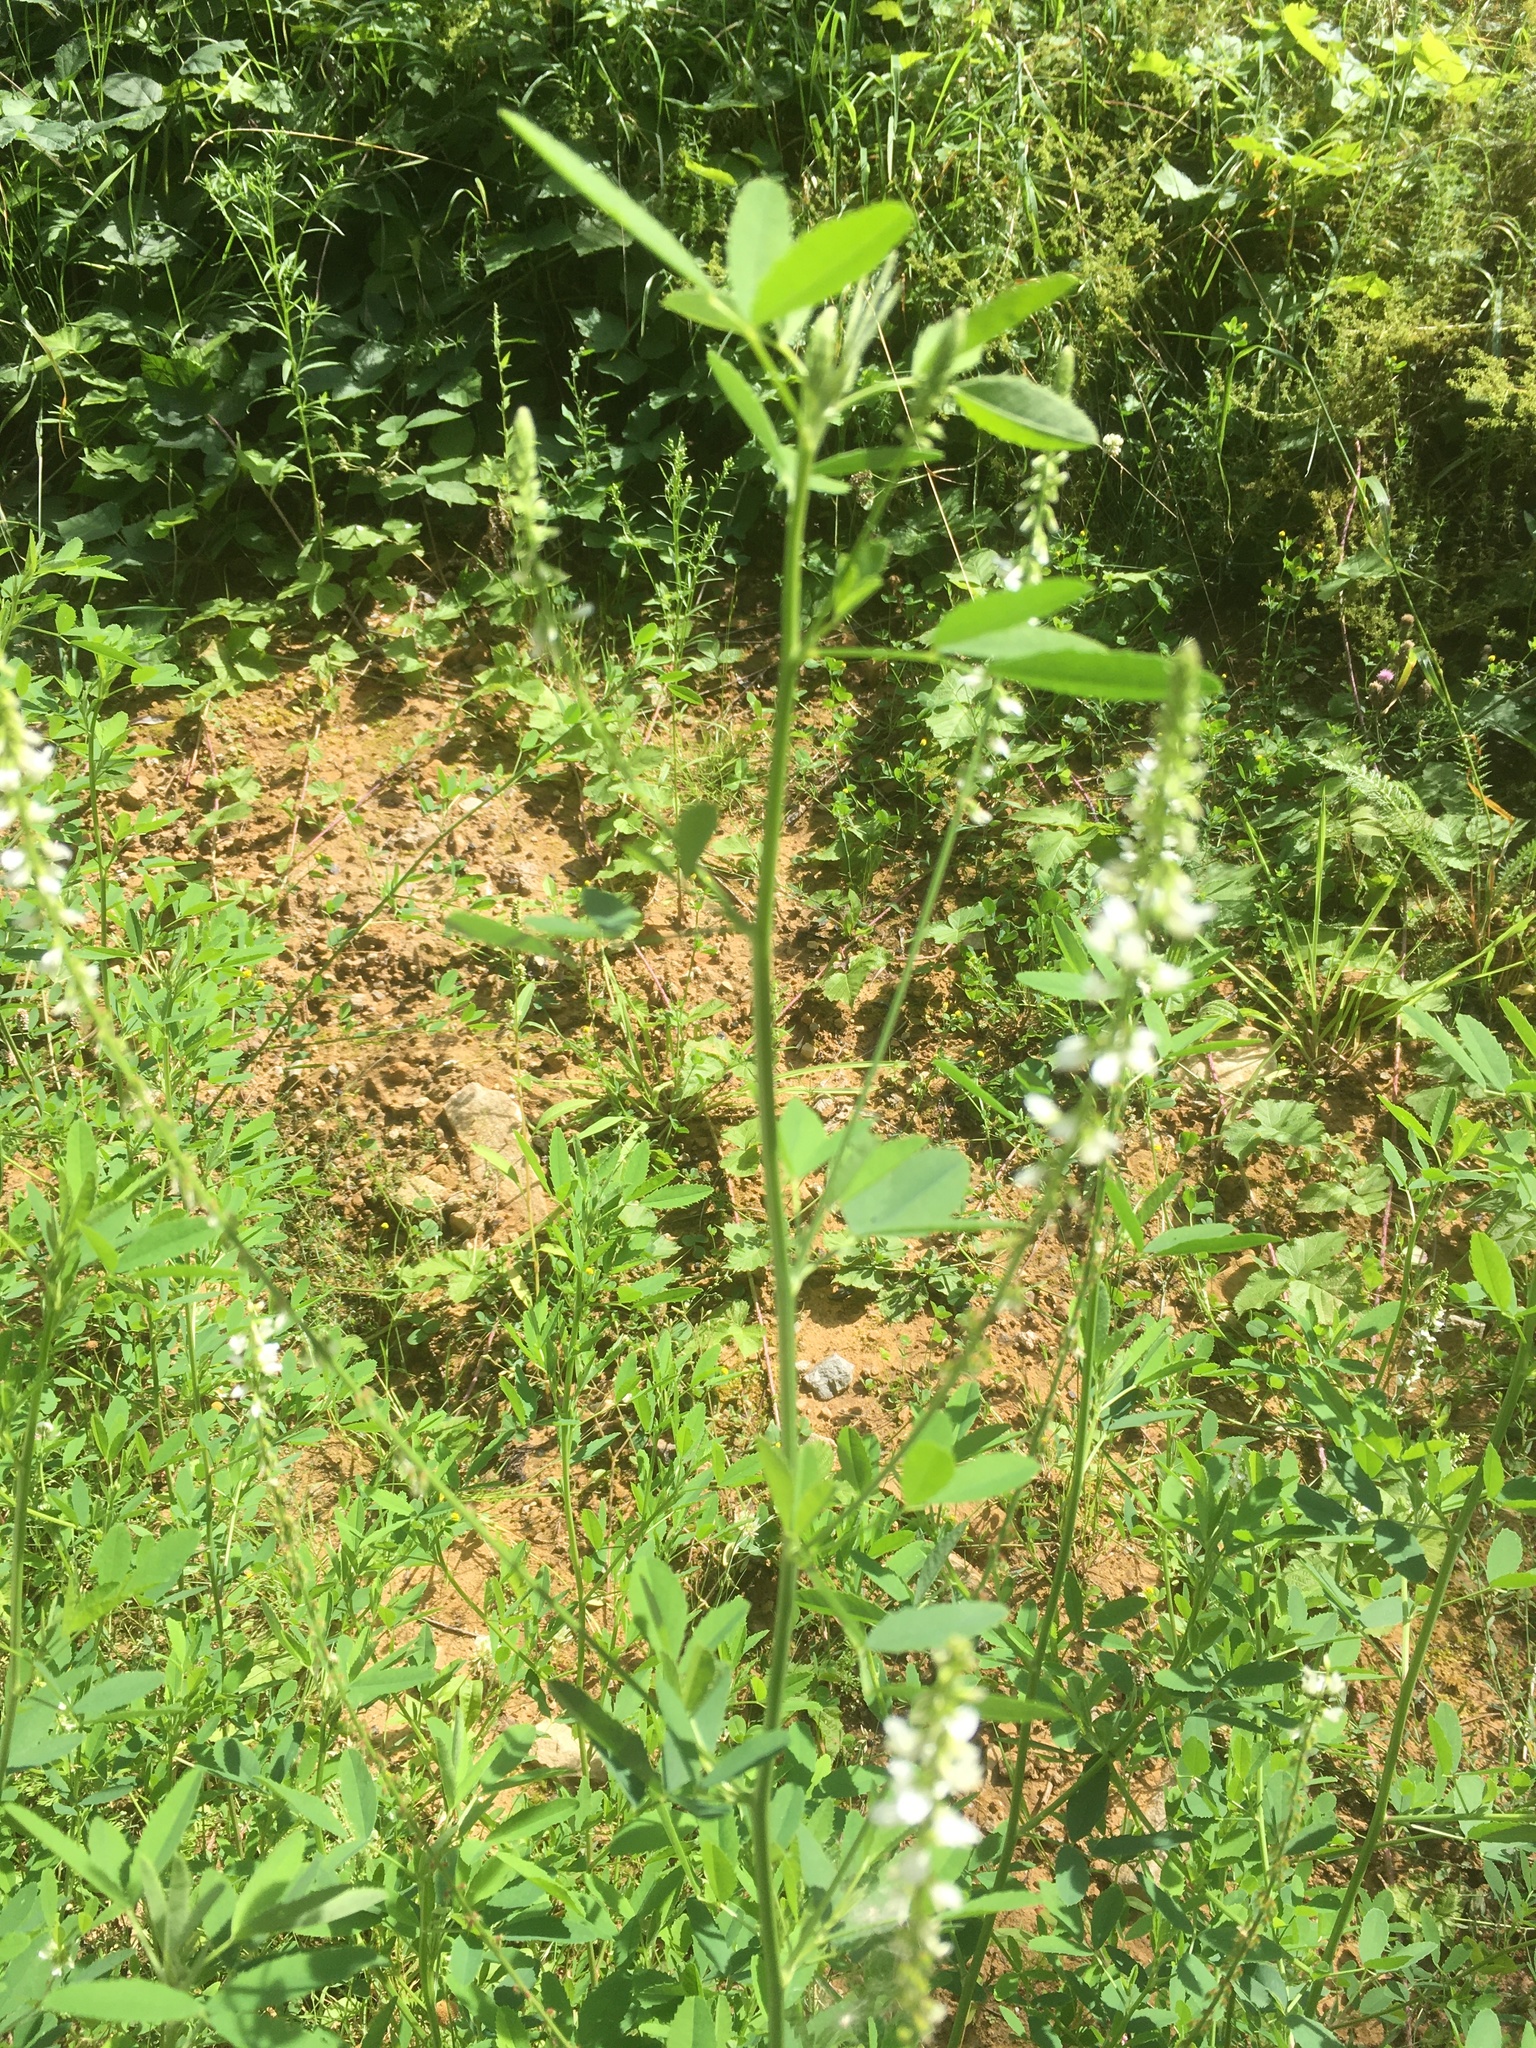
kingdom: Plantae
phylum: Tracheophyta
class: Magnoliopsida
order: Fabales
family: Fabaceae
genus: Melilotus
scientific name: Melilotus albus
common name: White melilot
